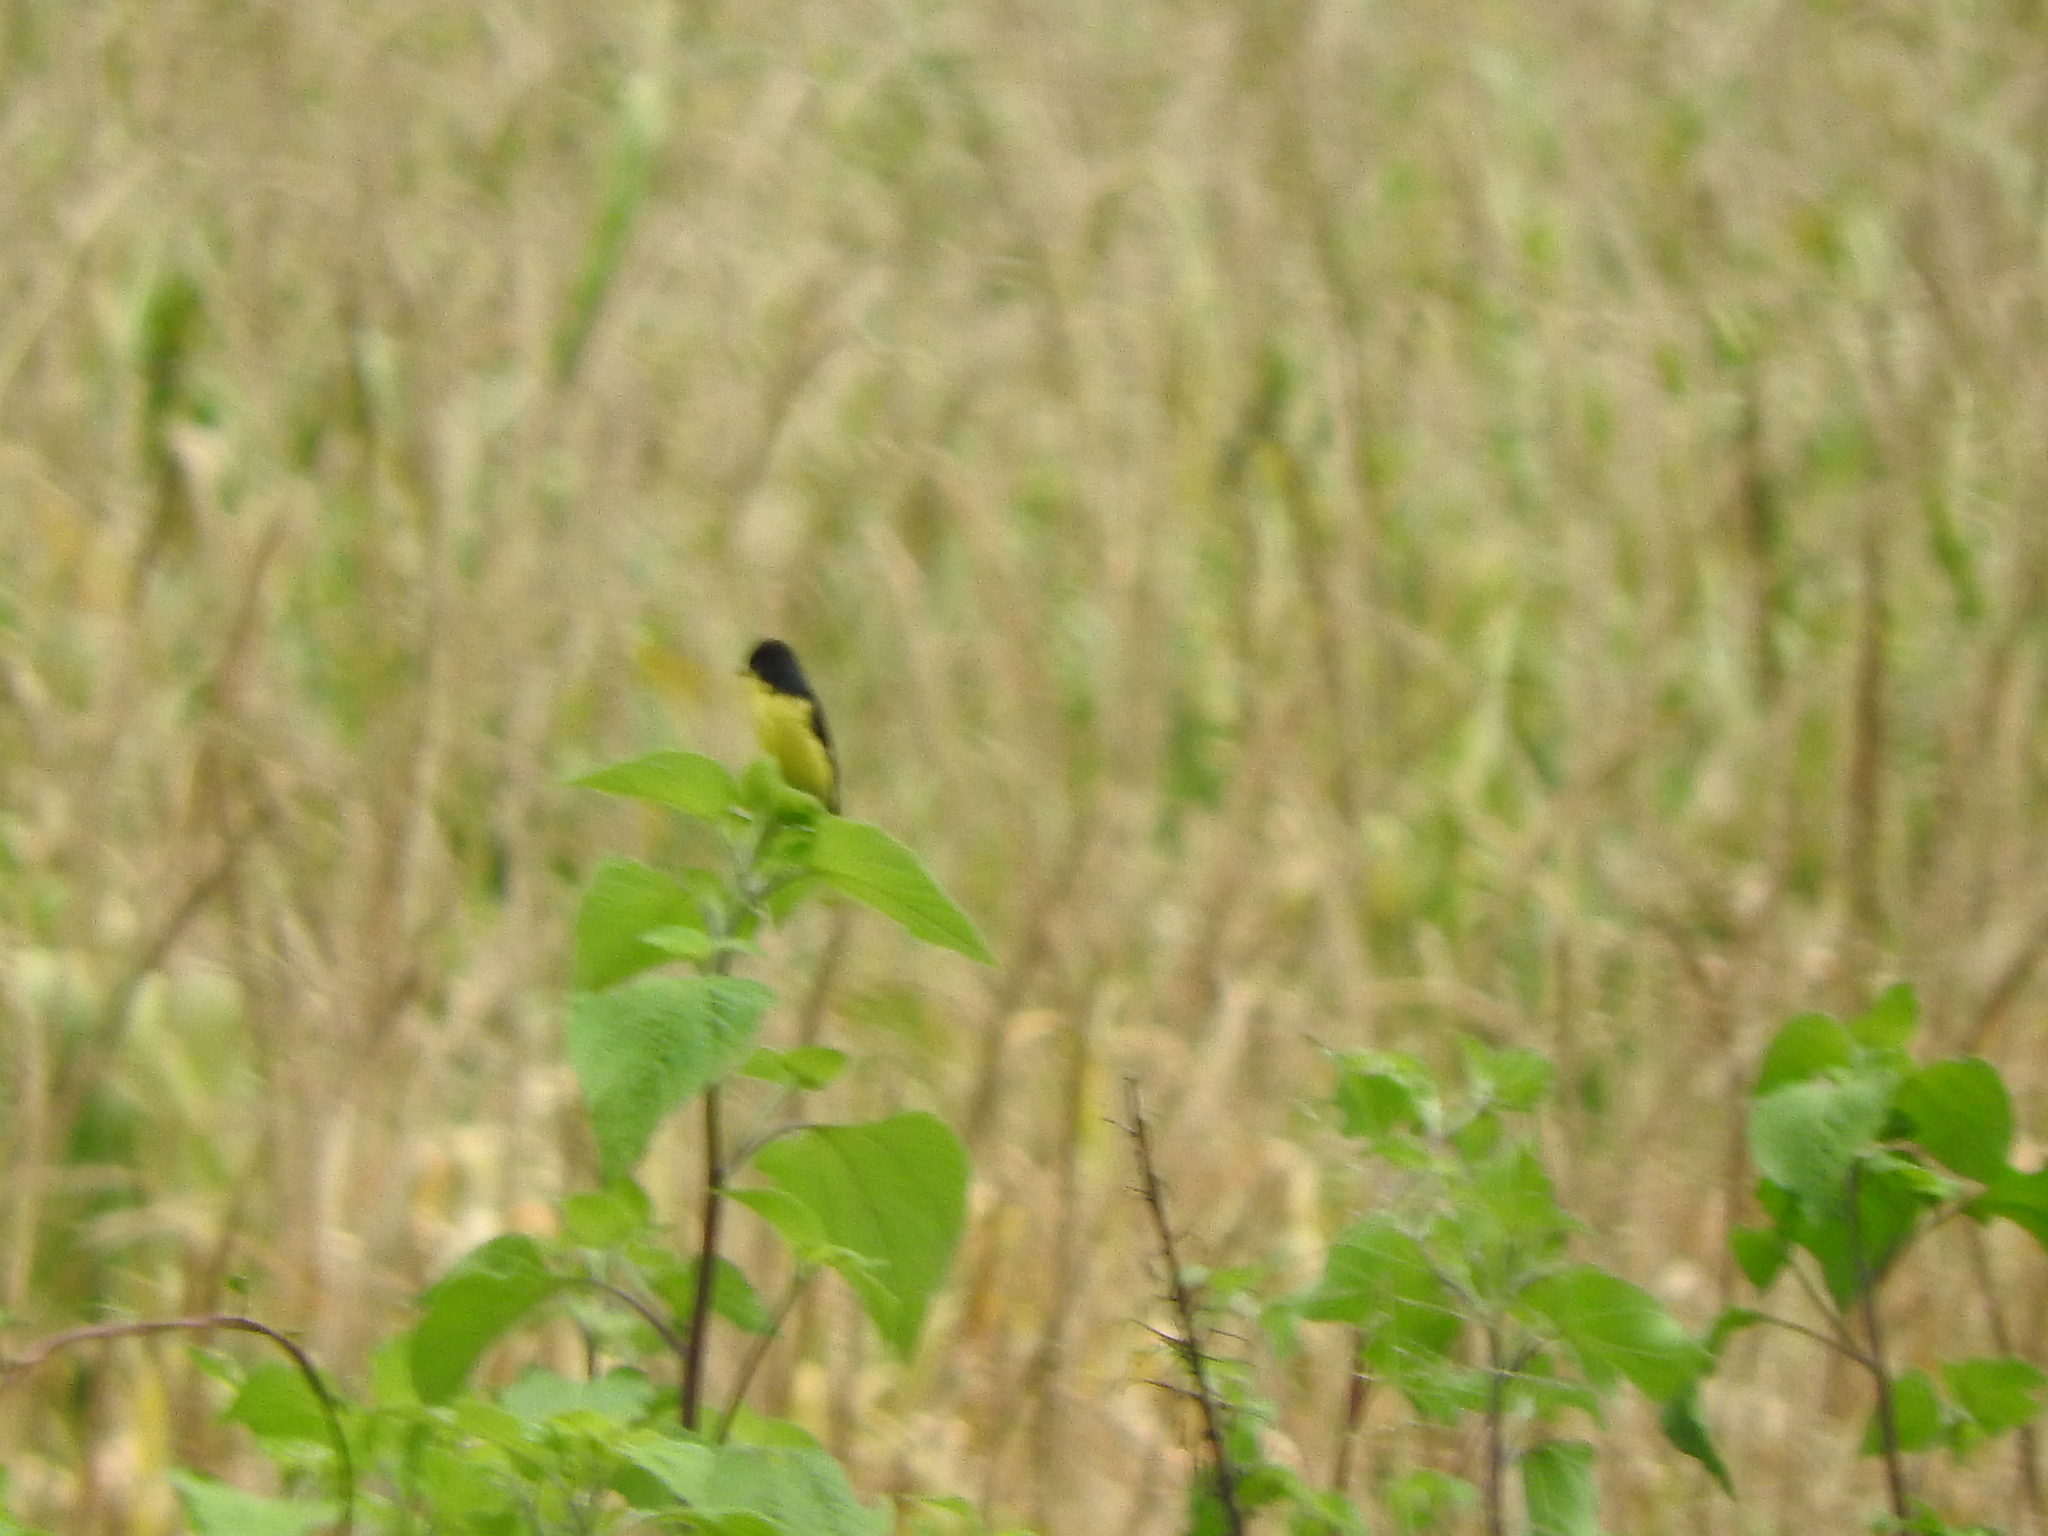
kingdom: Animalia
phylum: Chordata
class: Aves
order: Passeriformes
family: Fringillidae
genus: Spinus
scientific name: Spinus psaltria
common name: Lesser goldfinch
